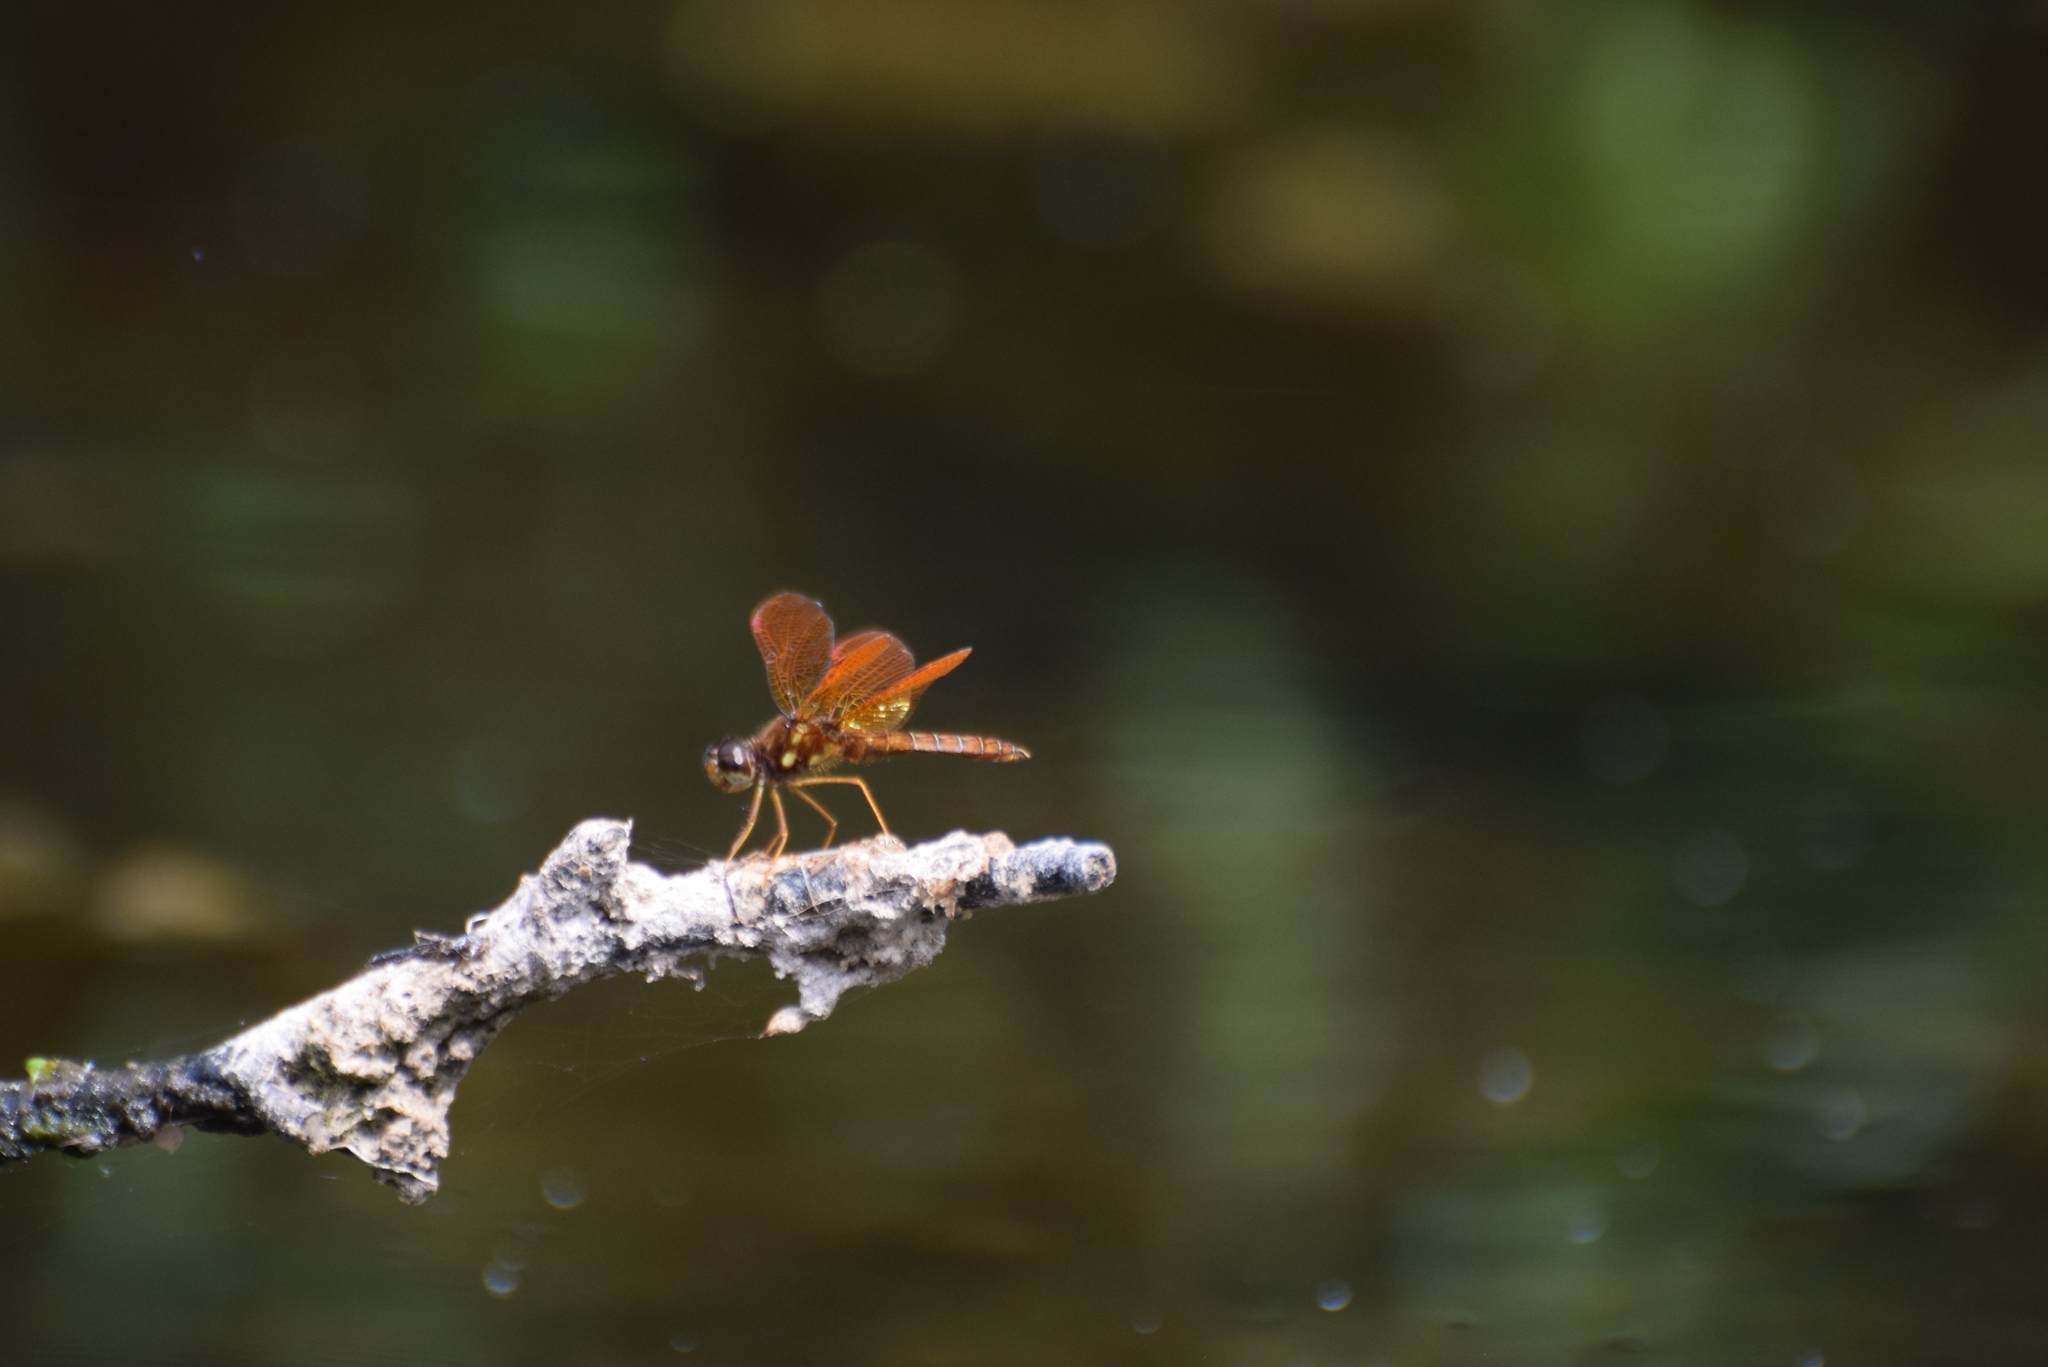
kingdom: Animalia
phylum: Arthropoda
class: Insecta
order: Odonata
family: Libellulidae
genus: Perithemis
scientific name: Perithemis tenera
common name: Eastern amberwing
